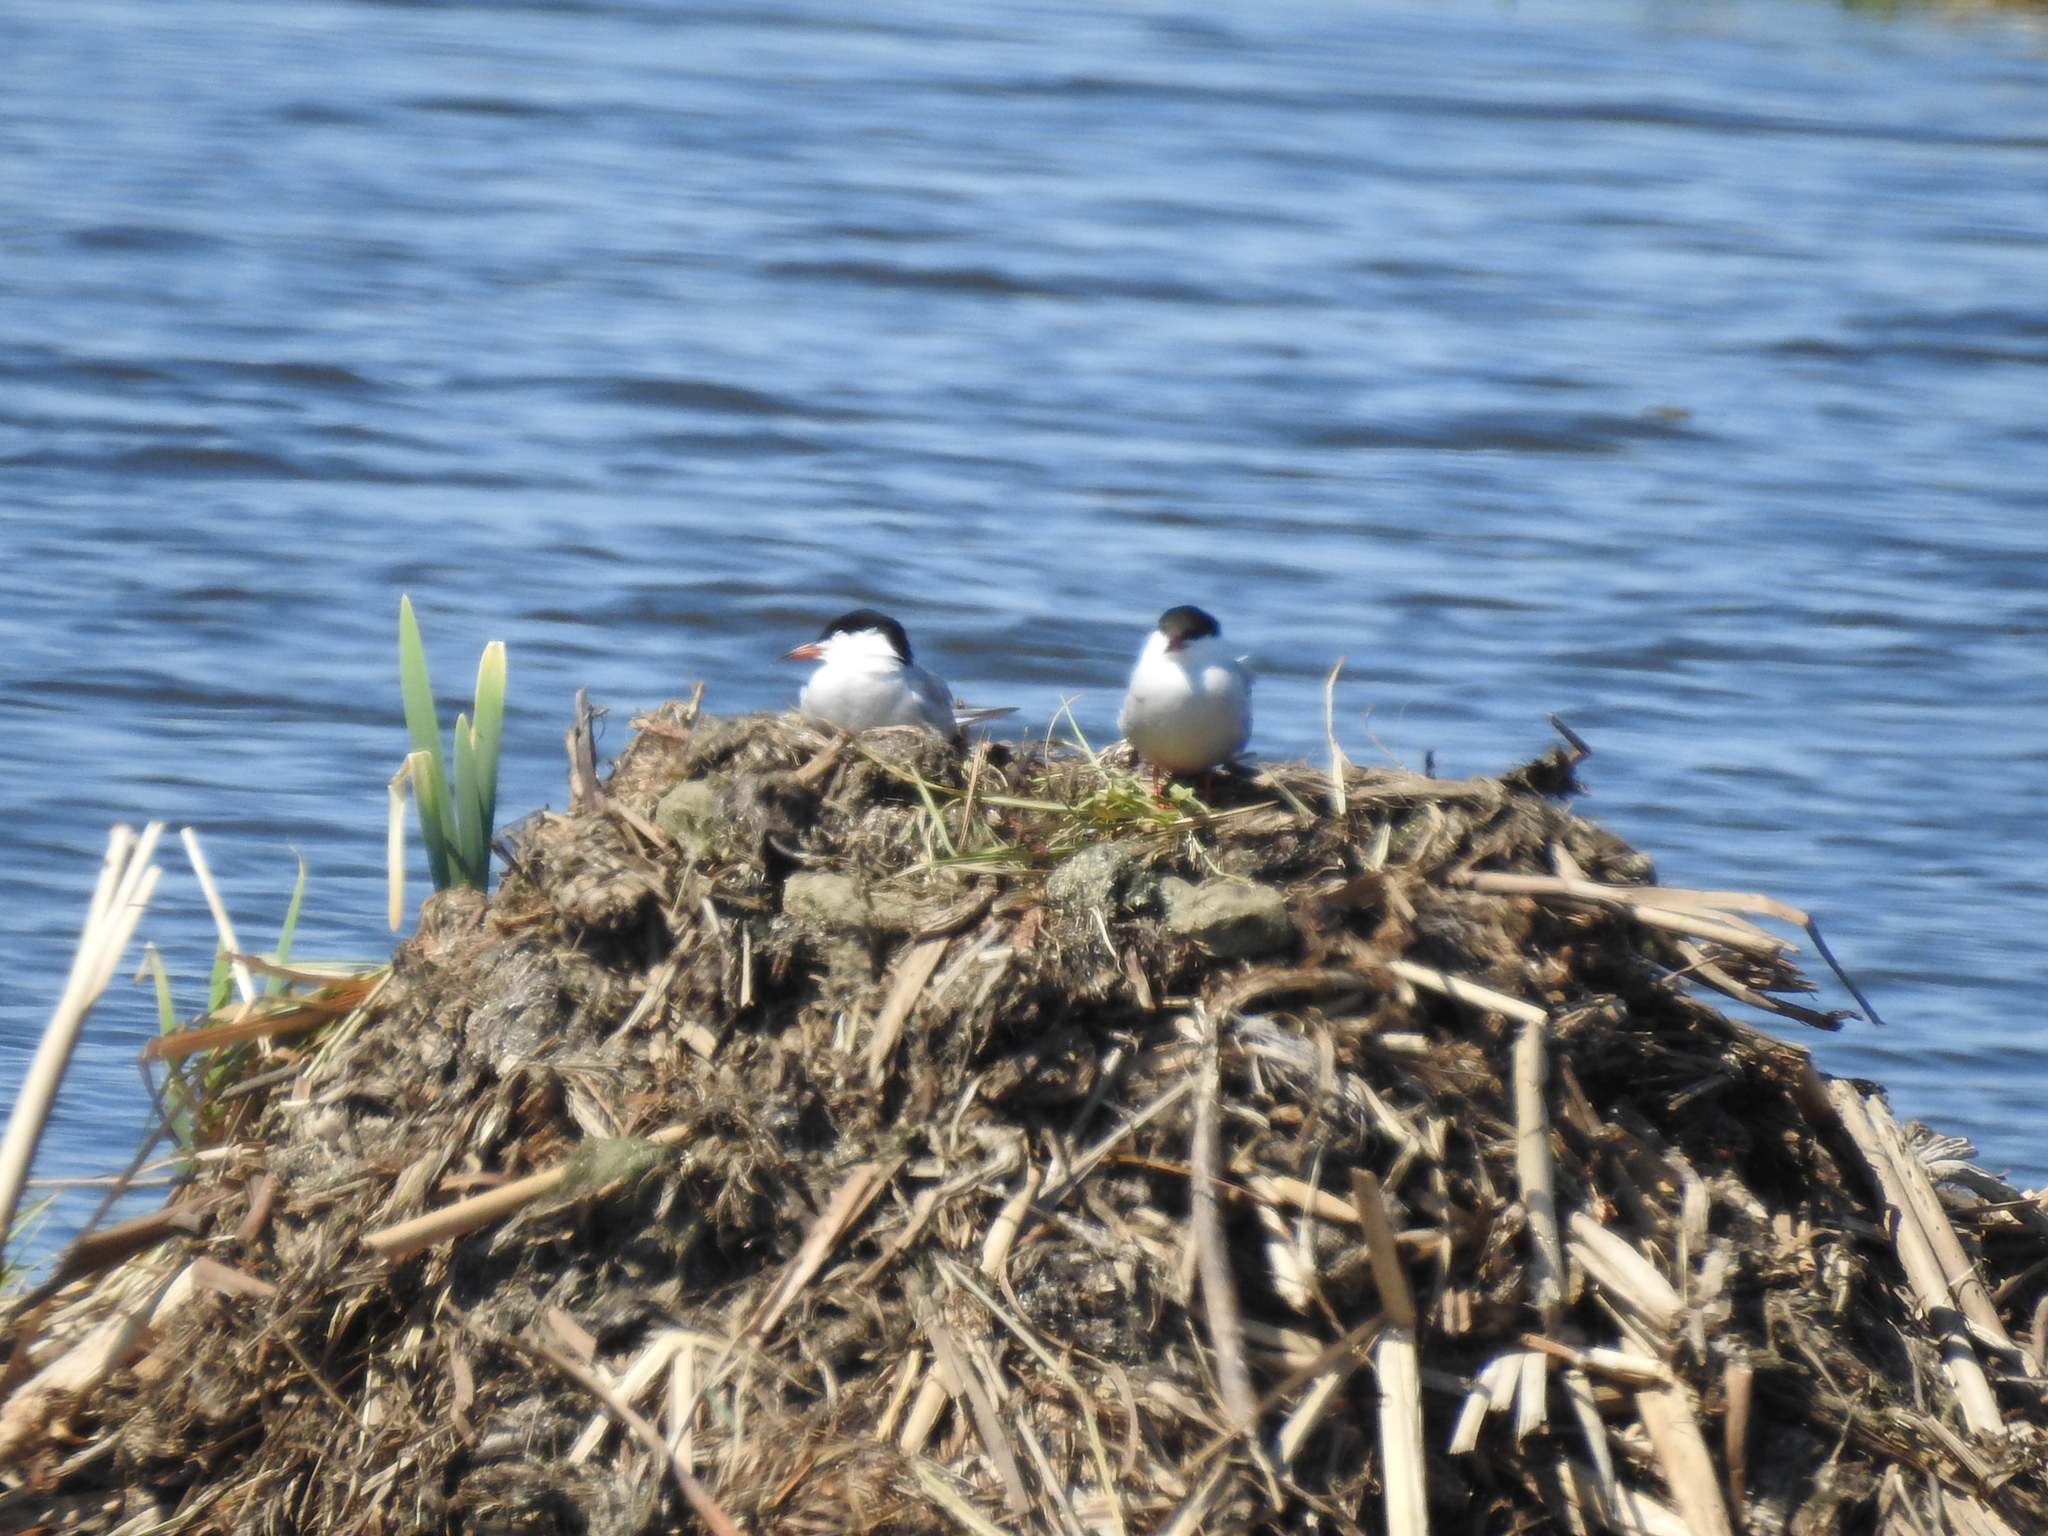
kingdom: Animalia
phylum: Chordata
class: Aves
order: Charadriiformes
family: Laridae
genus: Sterna
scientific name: Sterna hirundo
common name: Common tern
